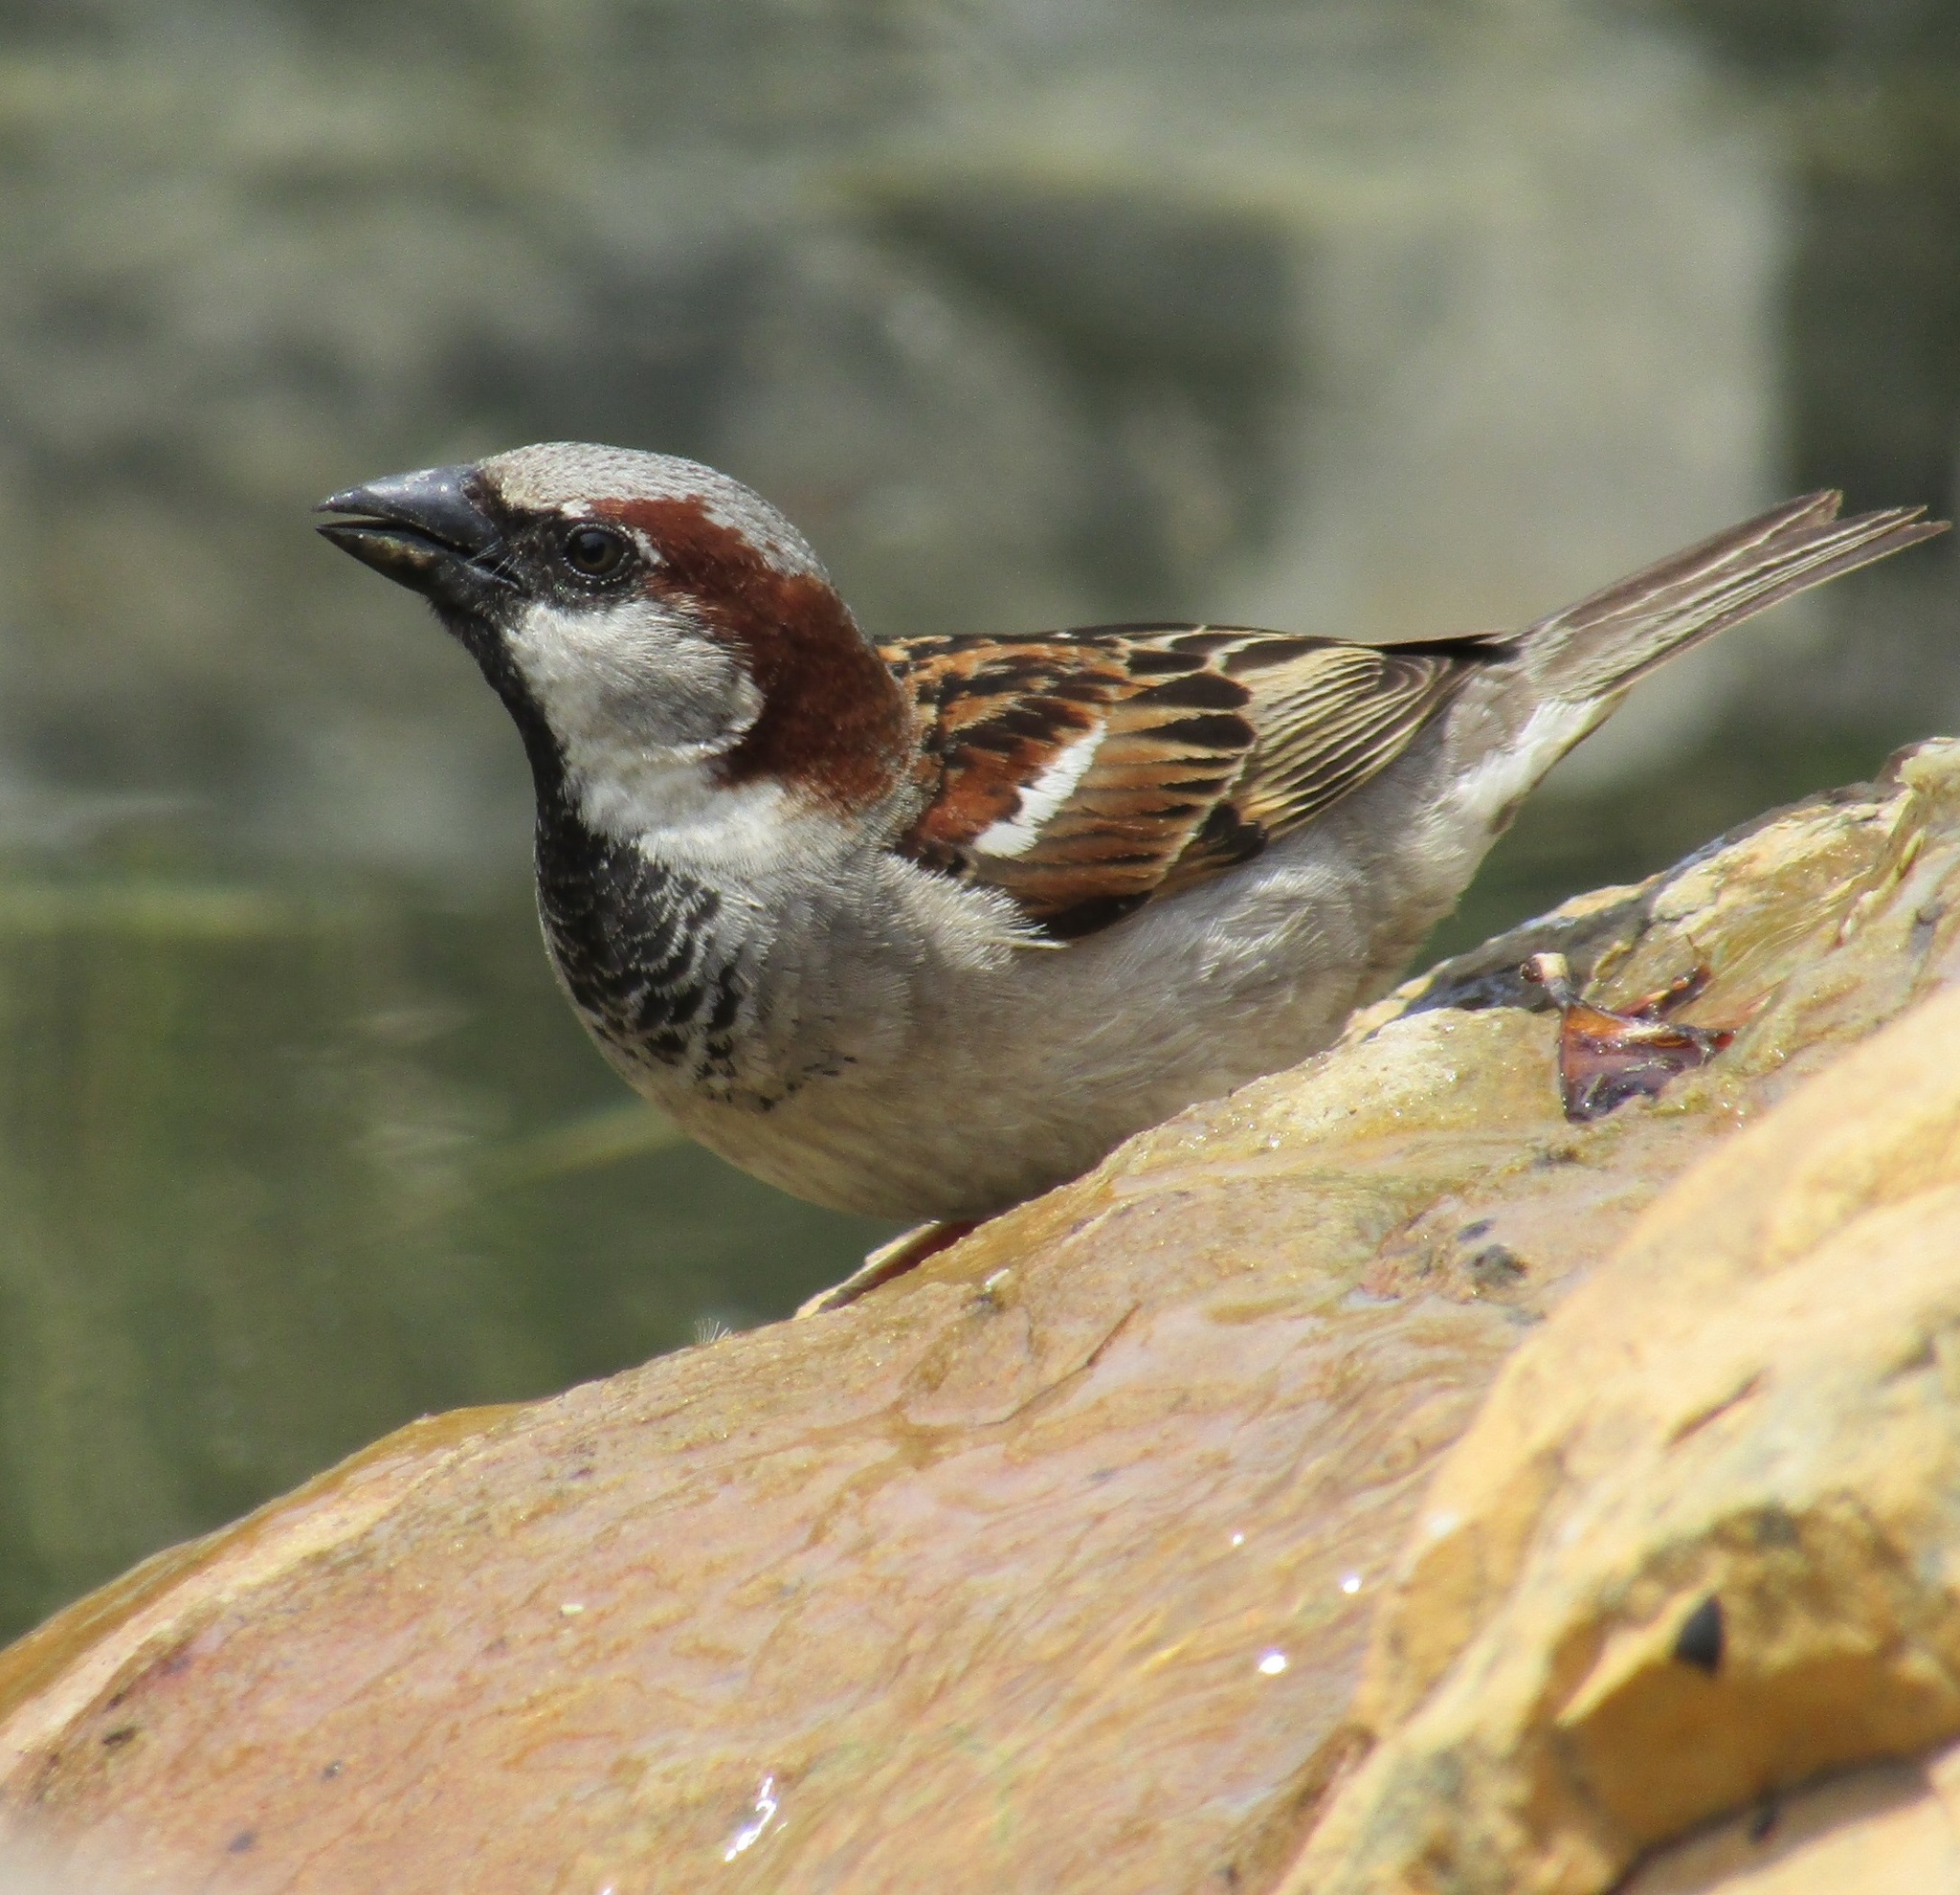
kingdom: Animalia
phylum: Chordata
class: Aves
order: Passeriformes
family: Passeridae
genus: Passer
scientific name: Passer domesticus
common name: House sparrow
